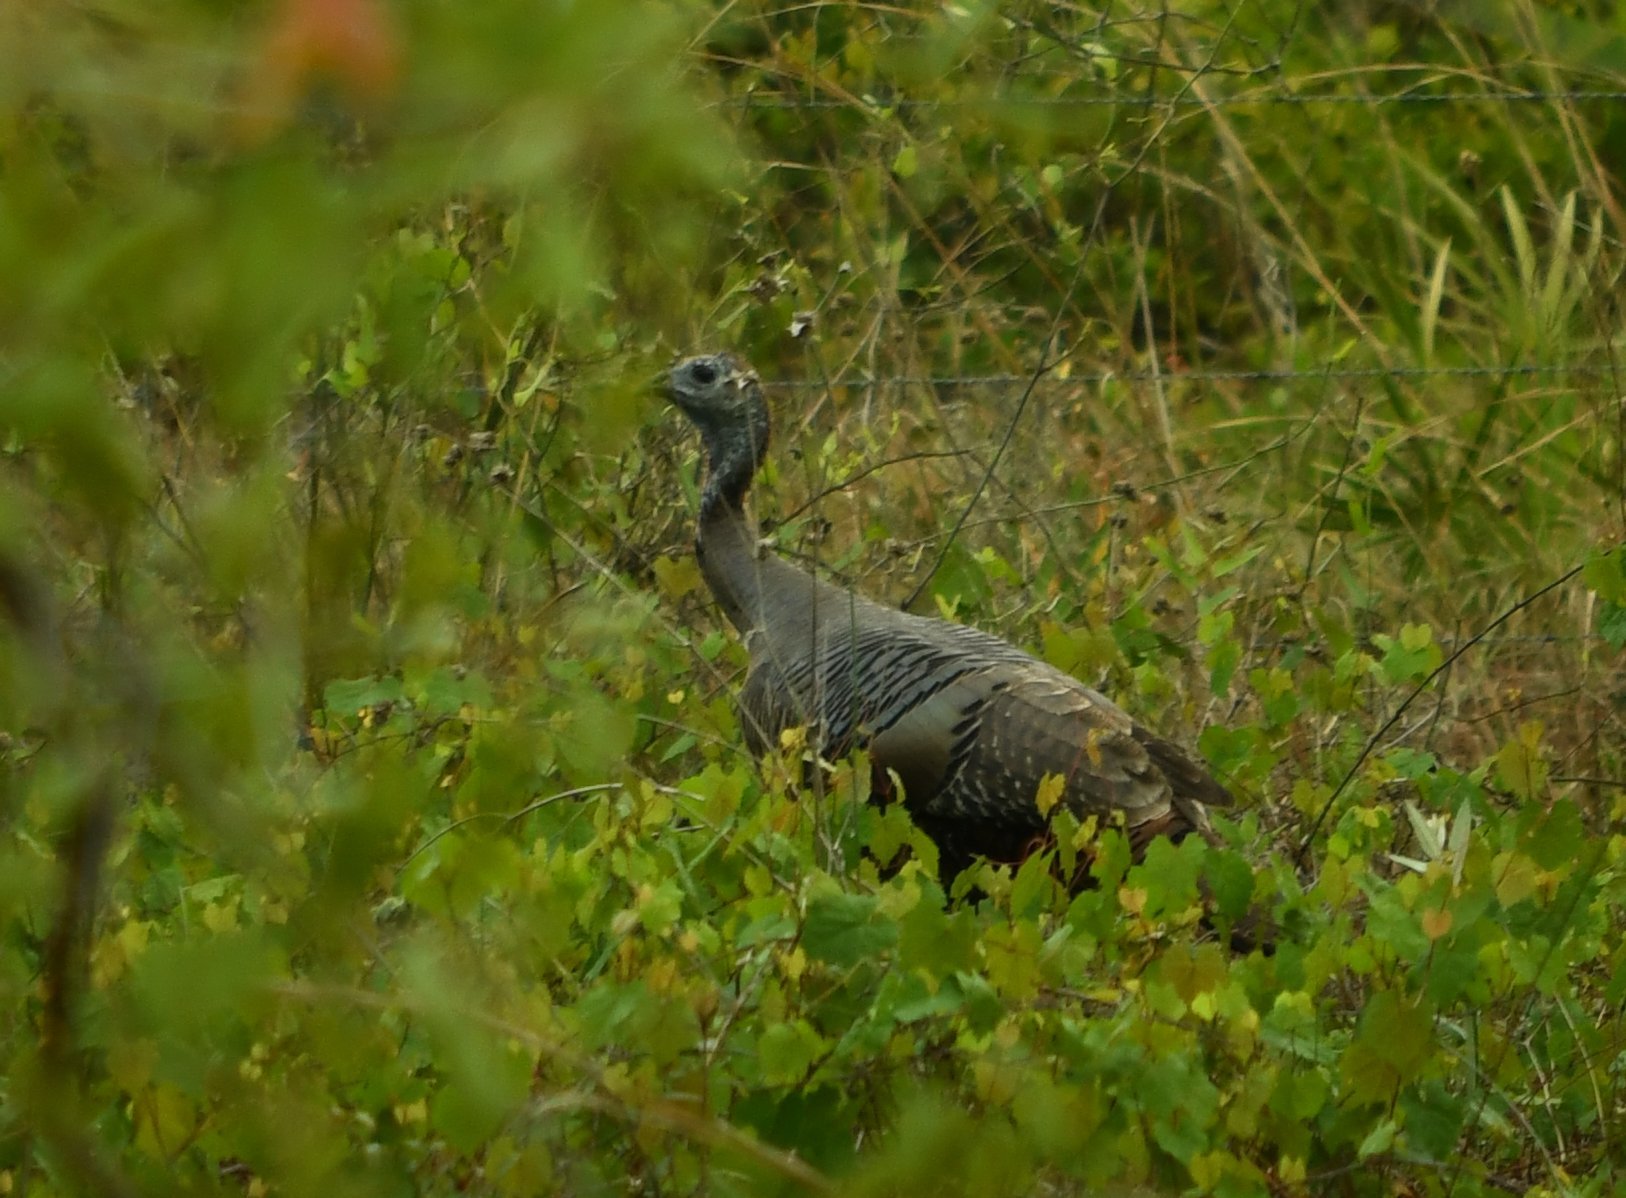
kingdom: Animalia
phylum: Chordata
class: Aves
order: Galliformes
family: Phasianidae
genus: Meleagris
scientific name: Meleagris gallopavo
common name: Wild turkey
